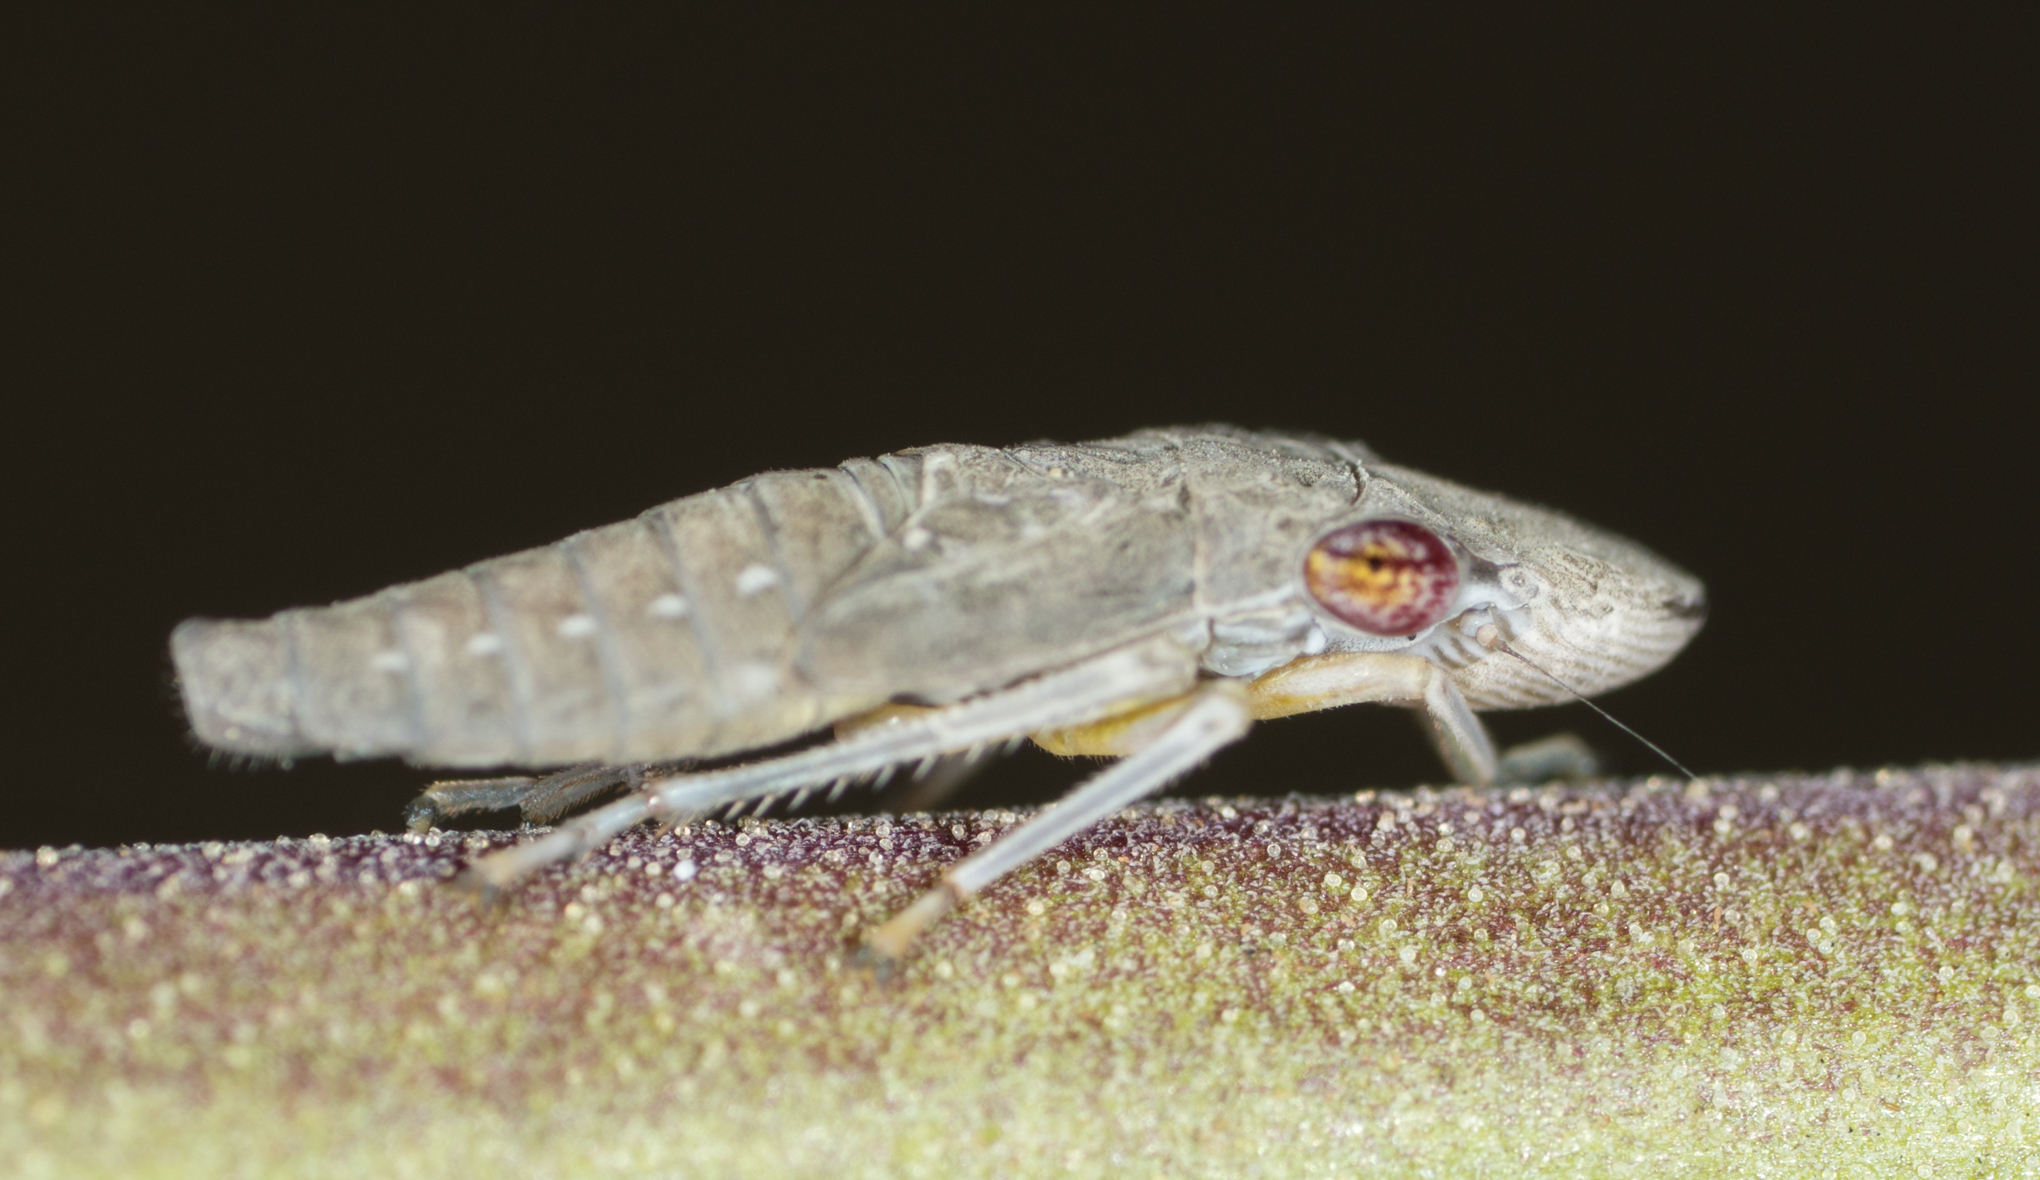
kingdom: Animalia
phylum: Arthropoda
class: Insecta
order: Hemiptera
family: Cicadellidae
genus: Homalodisca
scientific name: Homalodisca vitripennis
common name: Glassy-winged sharpshooter
